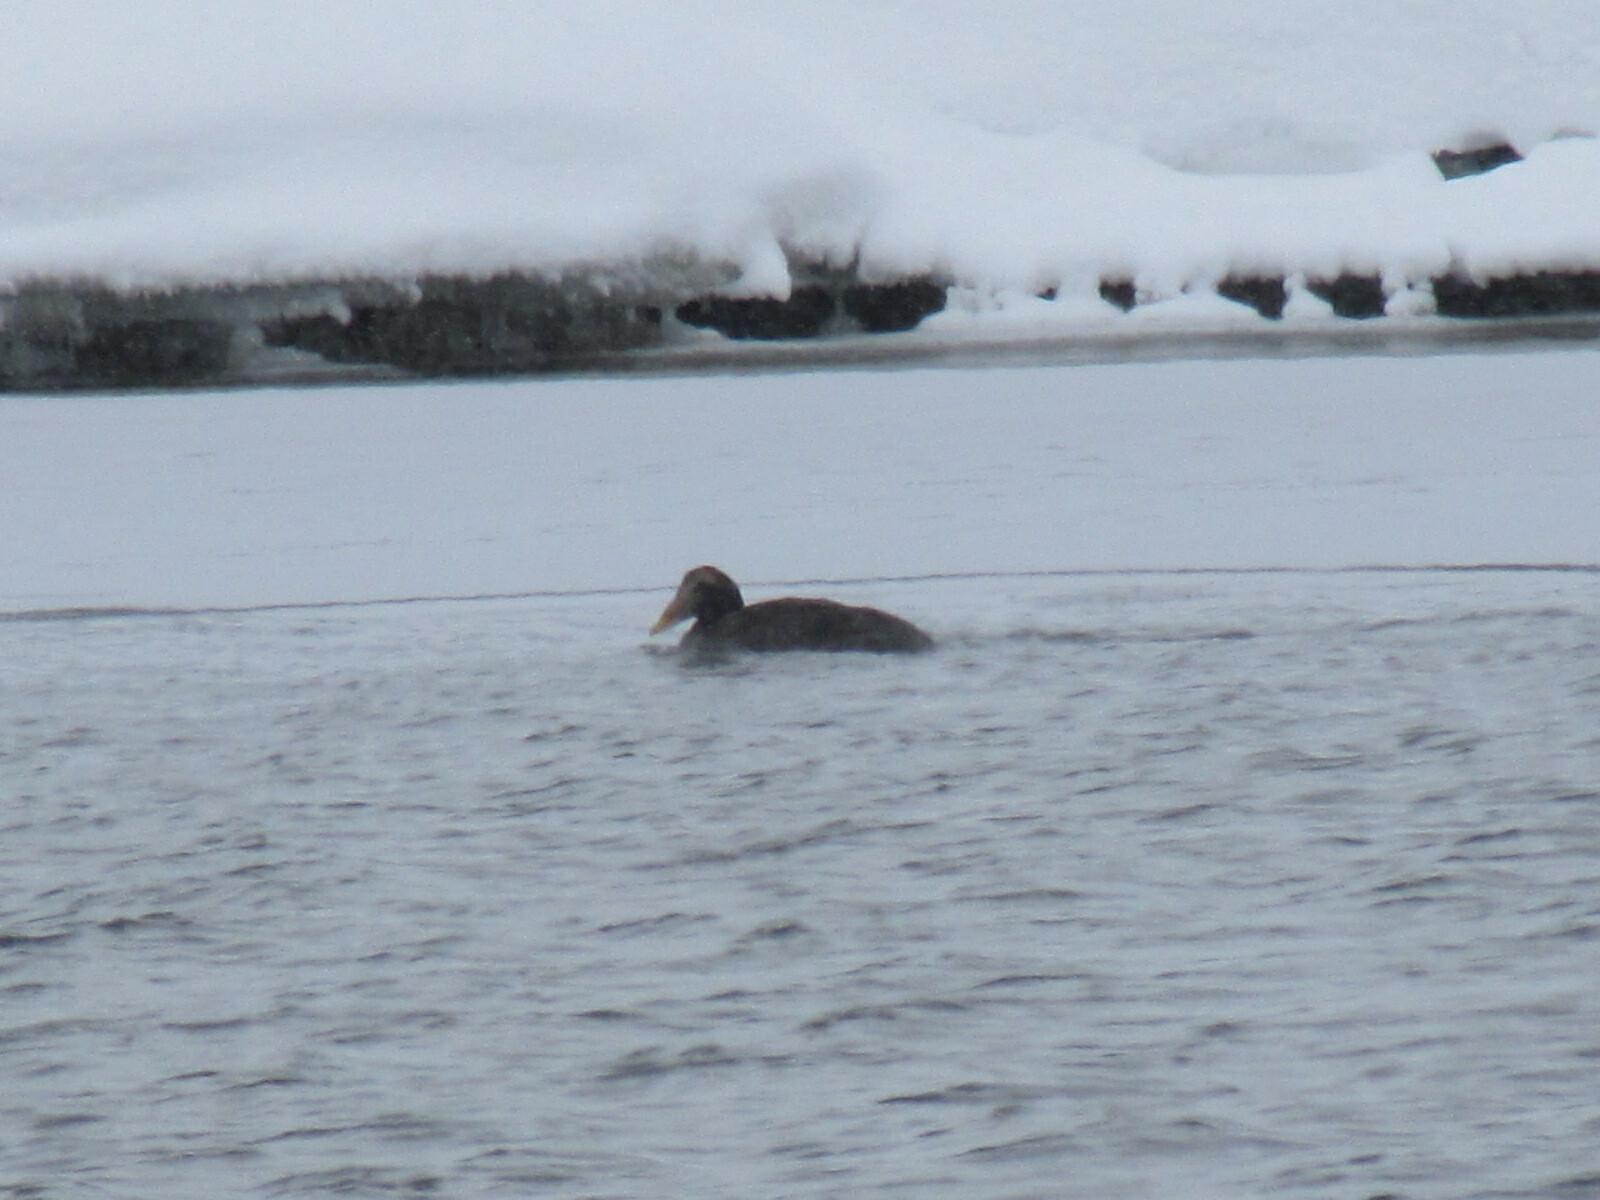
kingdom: Animalia
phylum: Chordata
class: Aves
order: Anseriformes
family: Anatidae
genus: Somateria
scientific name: Somateria mollissima
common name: Common eider
